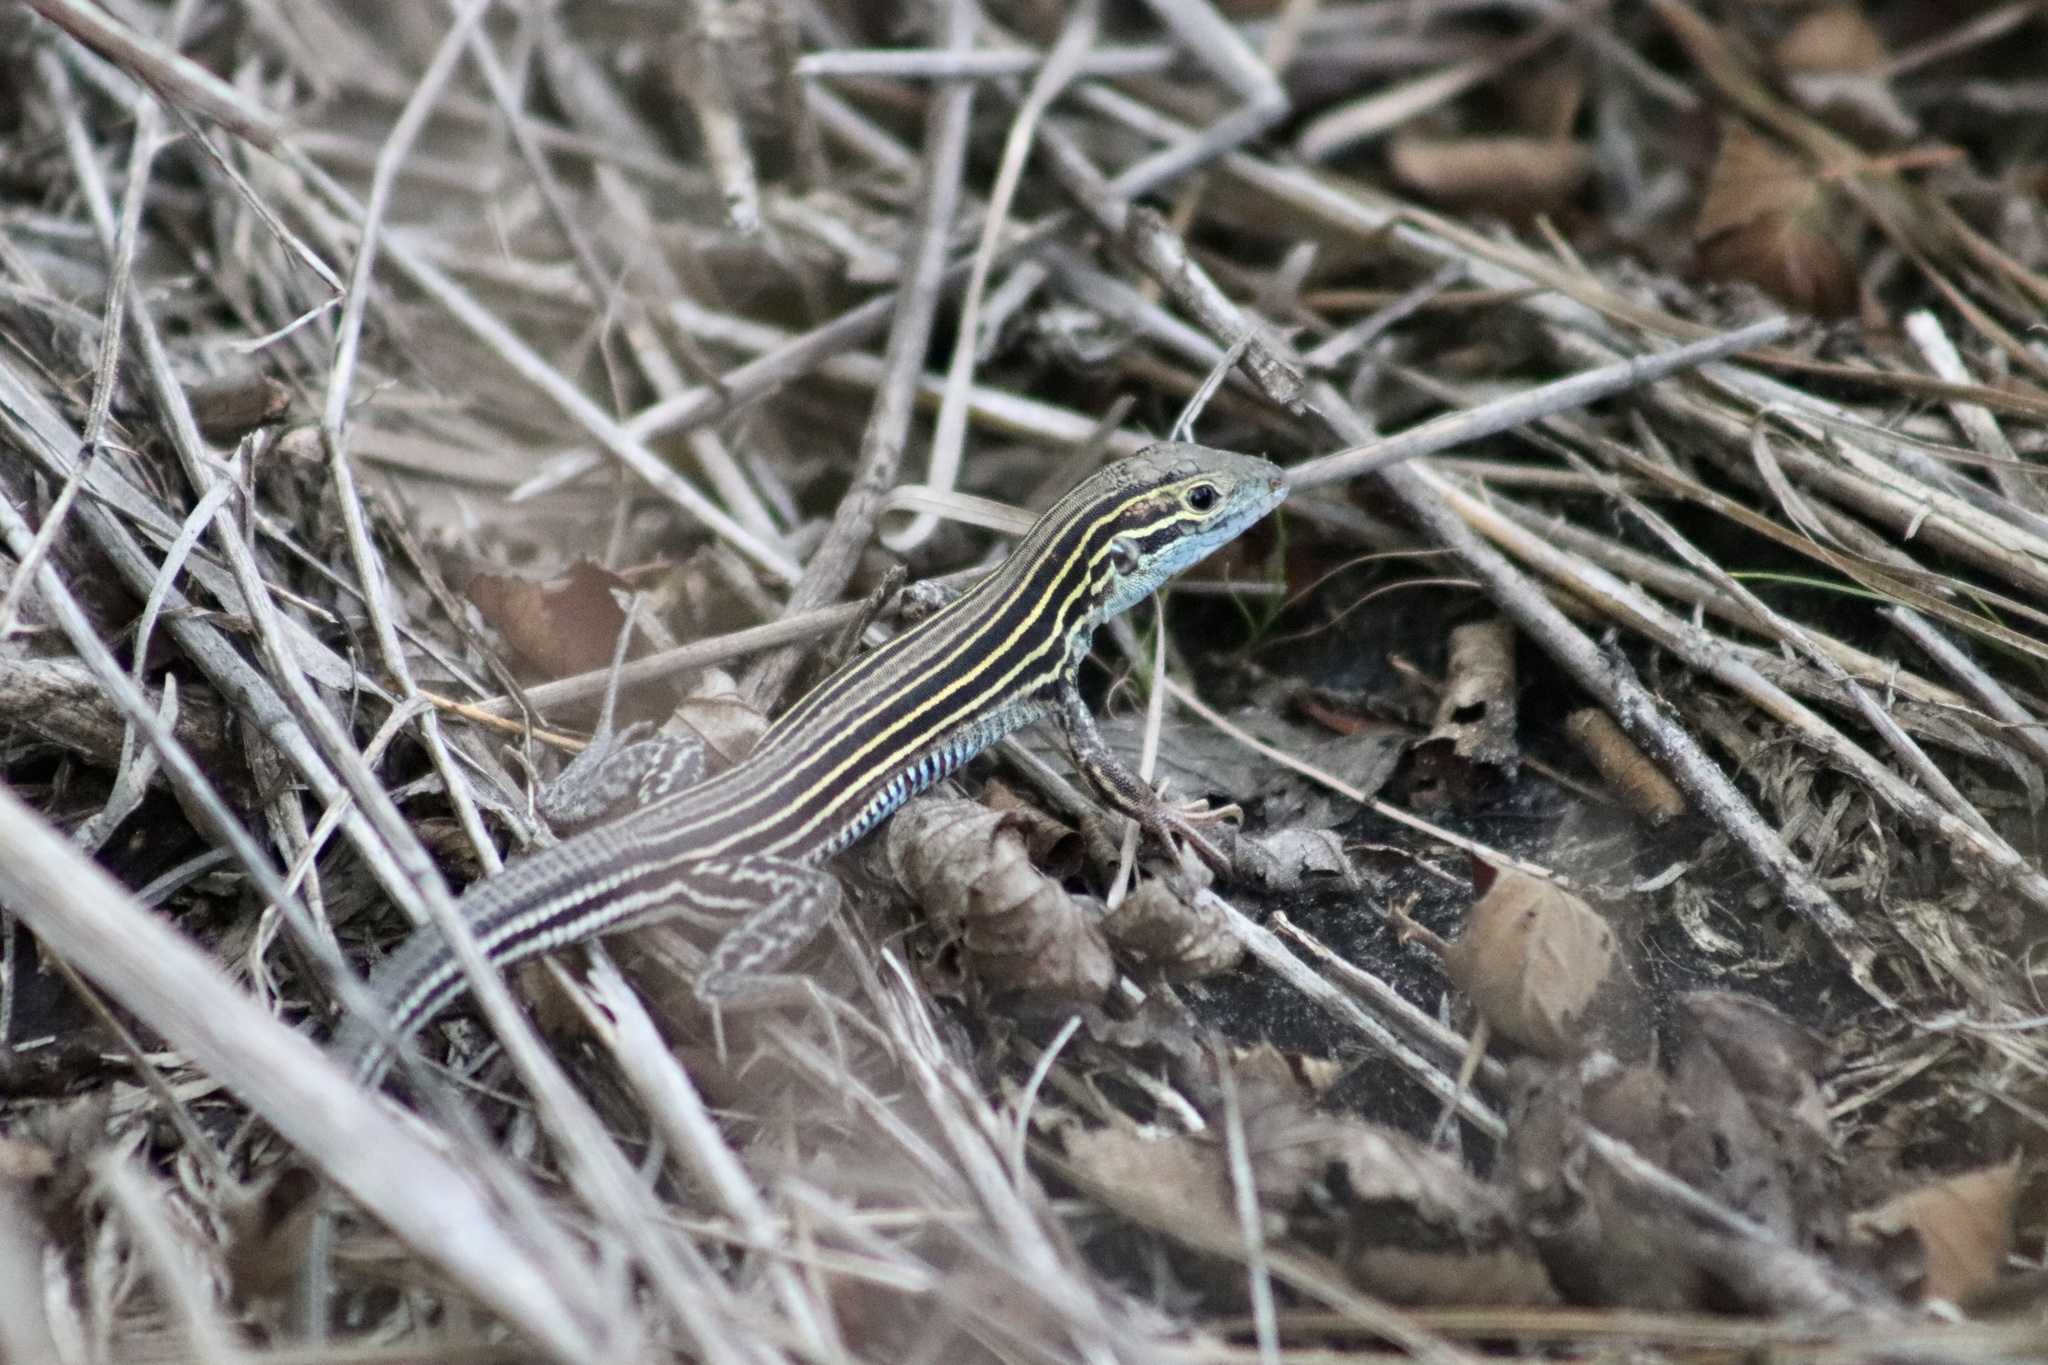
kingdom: Animalia
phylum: Chordata
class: Squamata
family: Teiidae
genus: Aspidoscelis
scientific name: Aspidoscelis sexlineatus
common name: Six-lined racerunner
